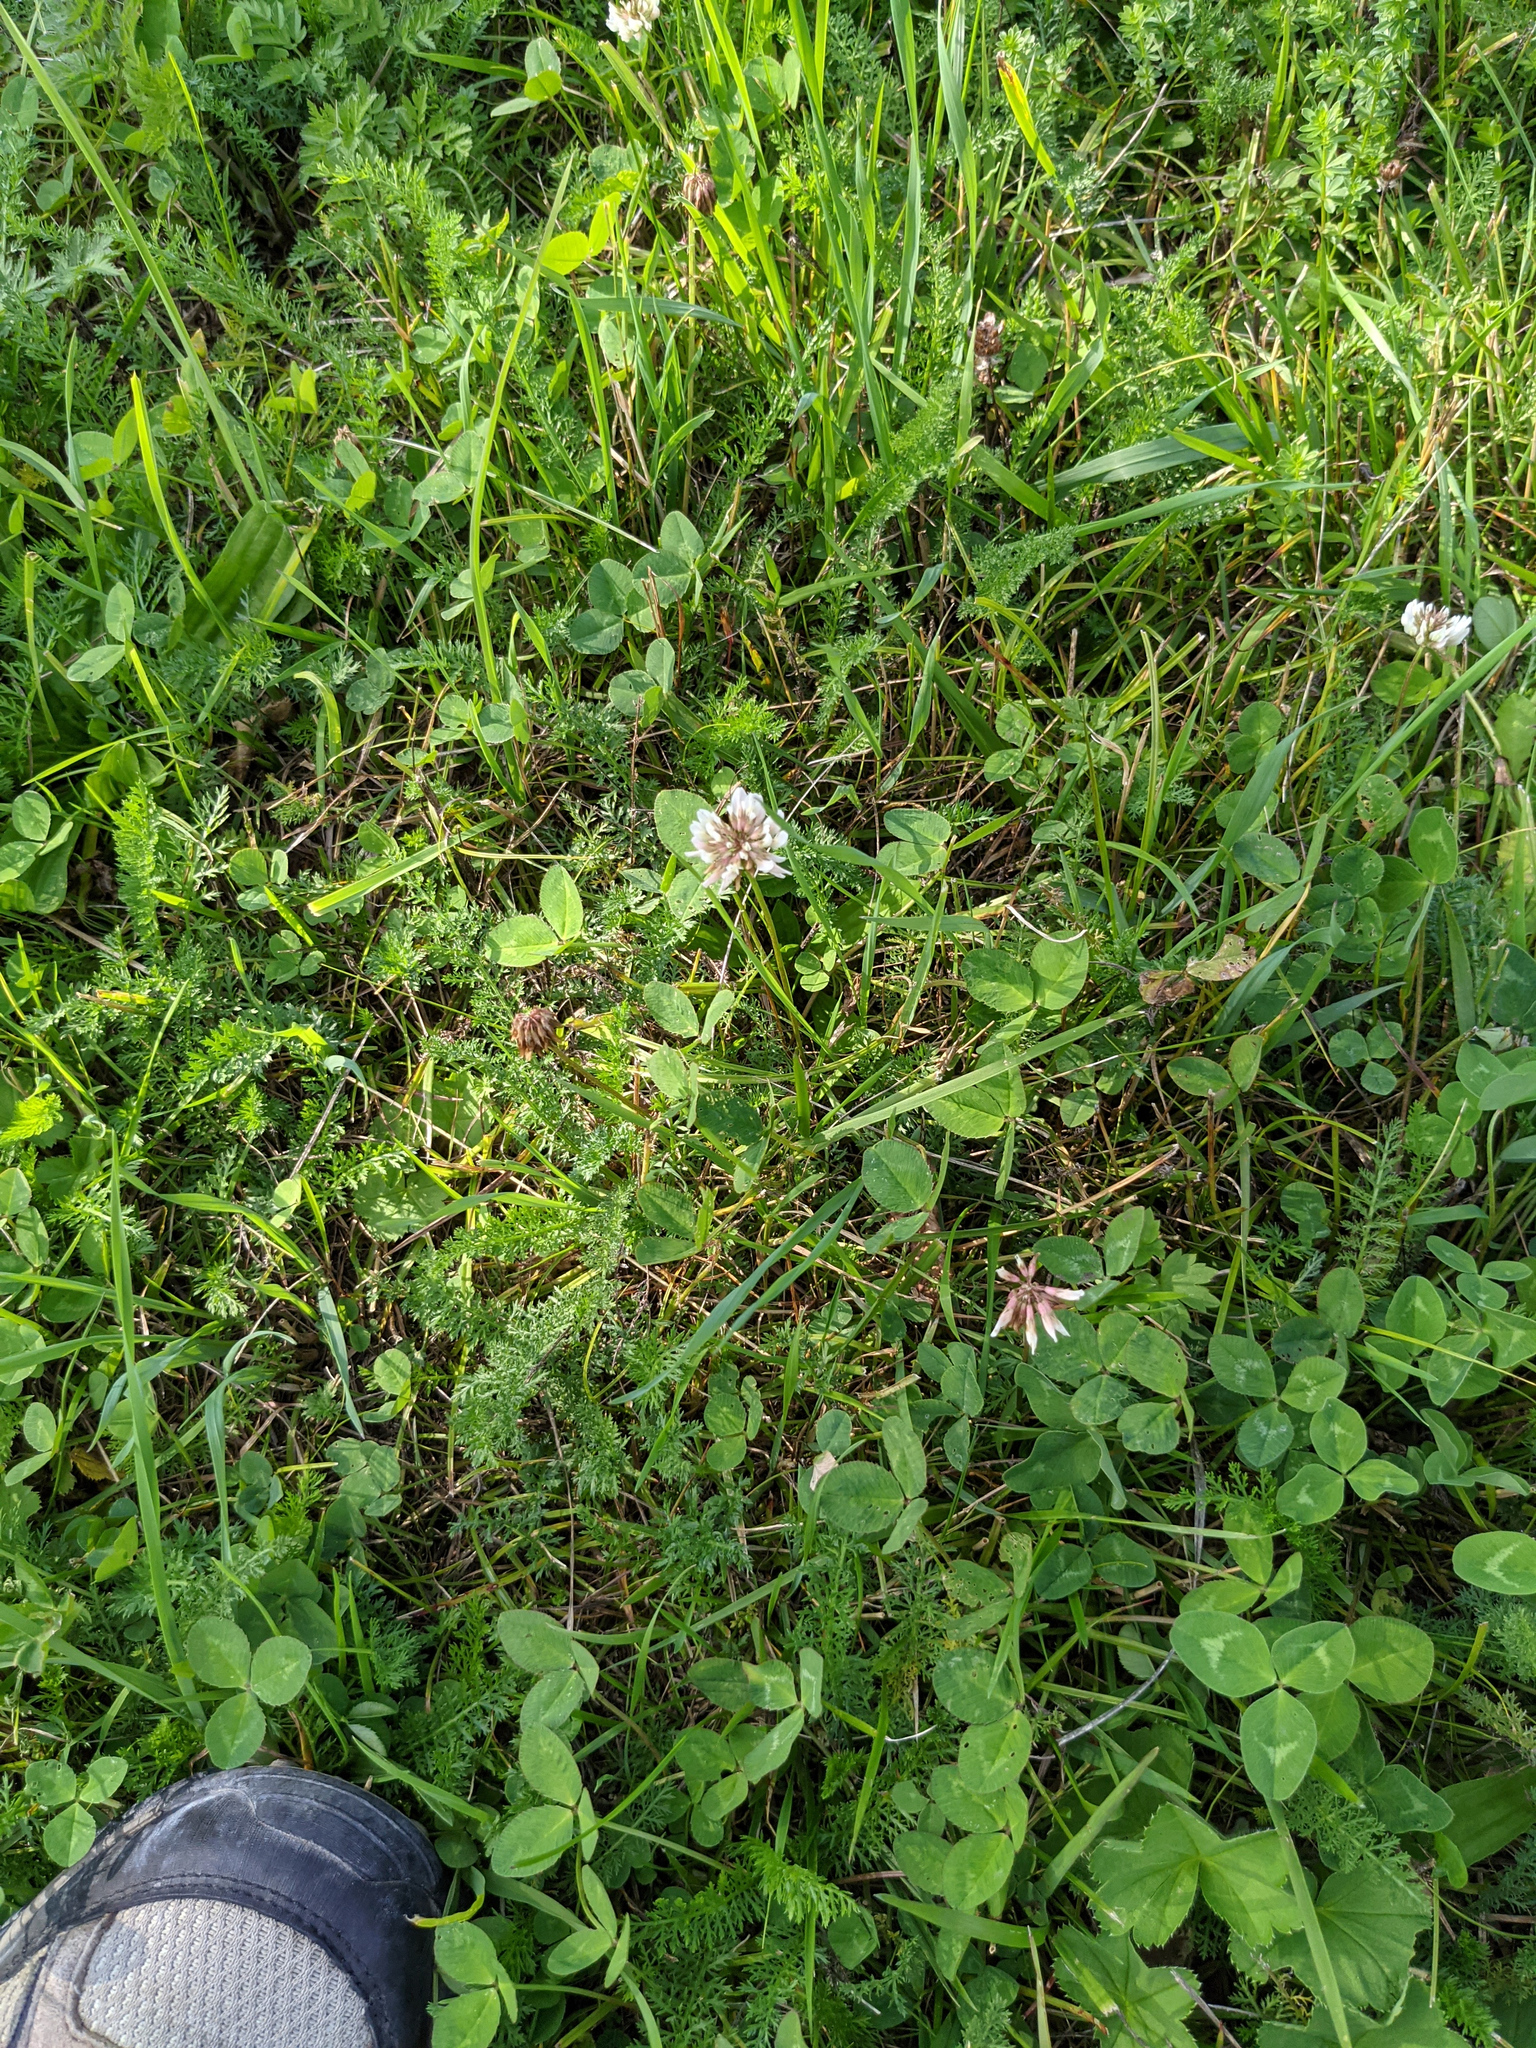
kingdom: Plantae
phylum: Tracheophyta
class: Magnoliopsida
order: Fabales
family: Fabaceae
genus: Trifolium
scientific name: Trifolium repens
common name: White clover
